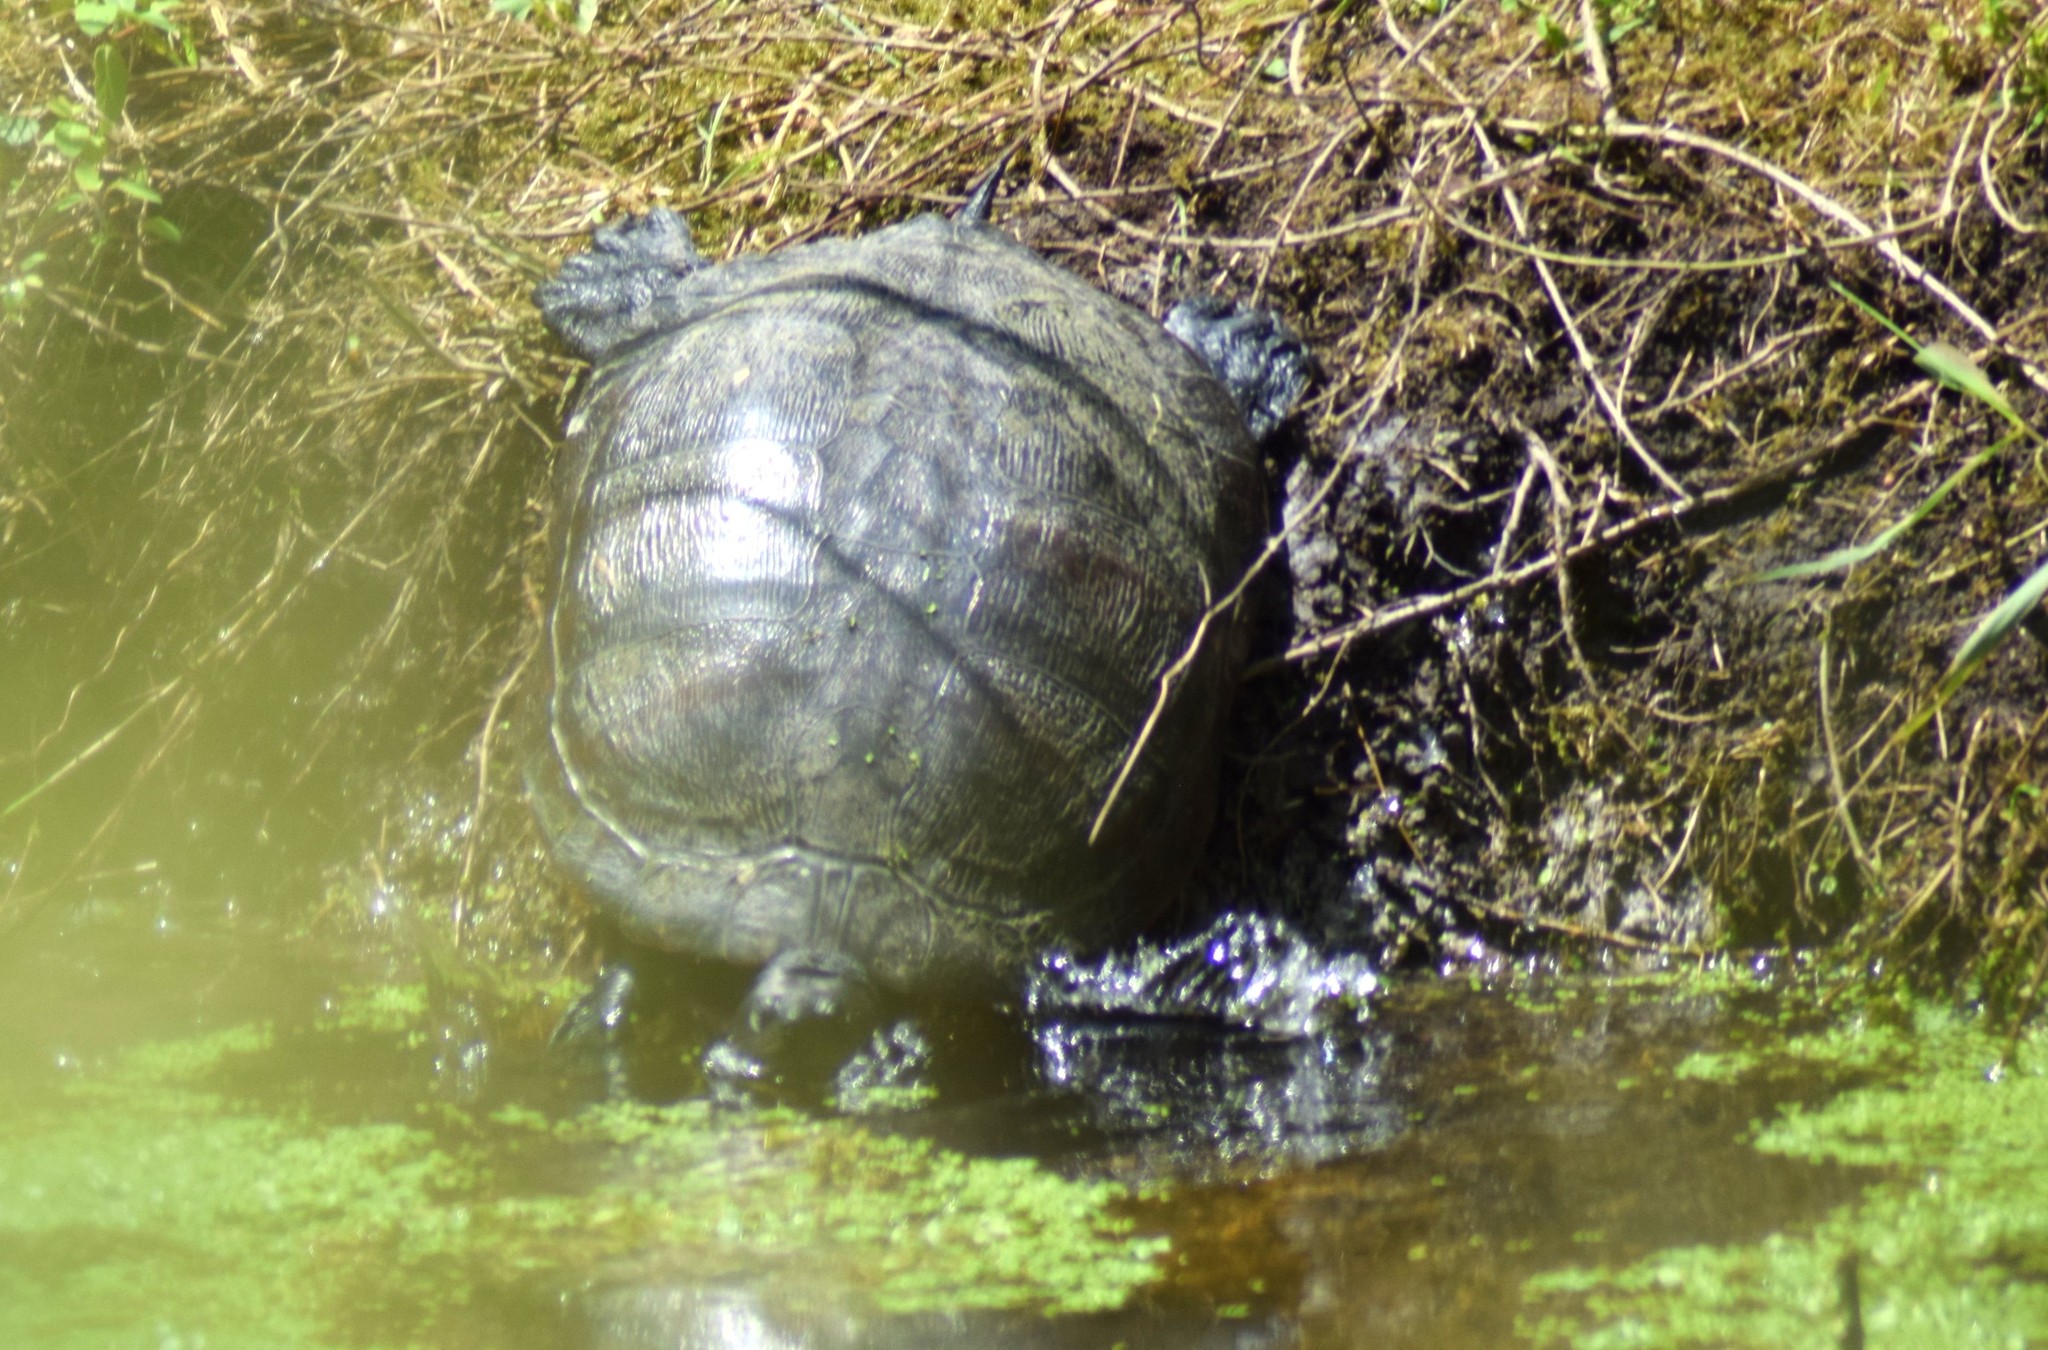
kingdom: Animalia
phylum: Chordata
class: Testudines
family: Emydidae
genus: Pseudemys
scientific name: Pseudemys rubriventris
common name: American red-bellied turtle
